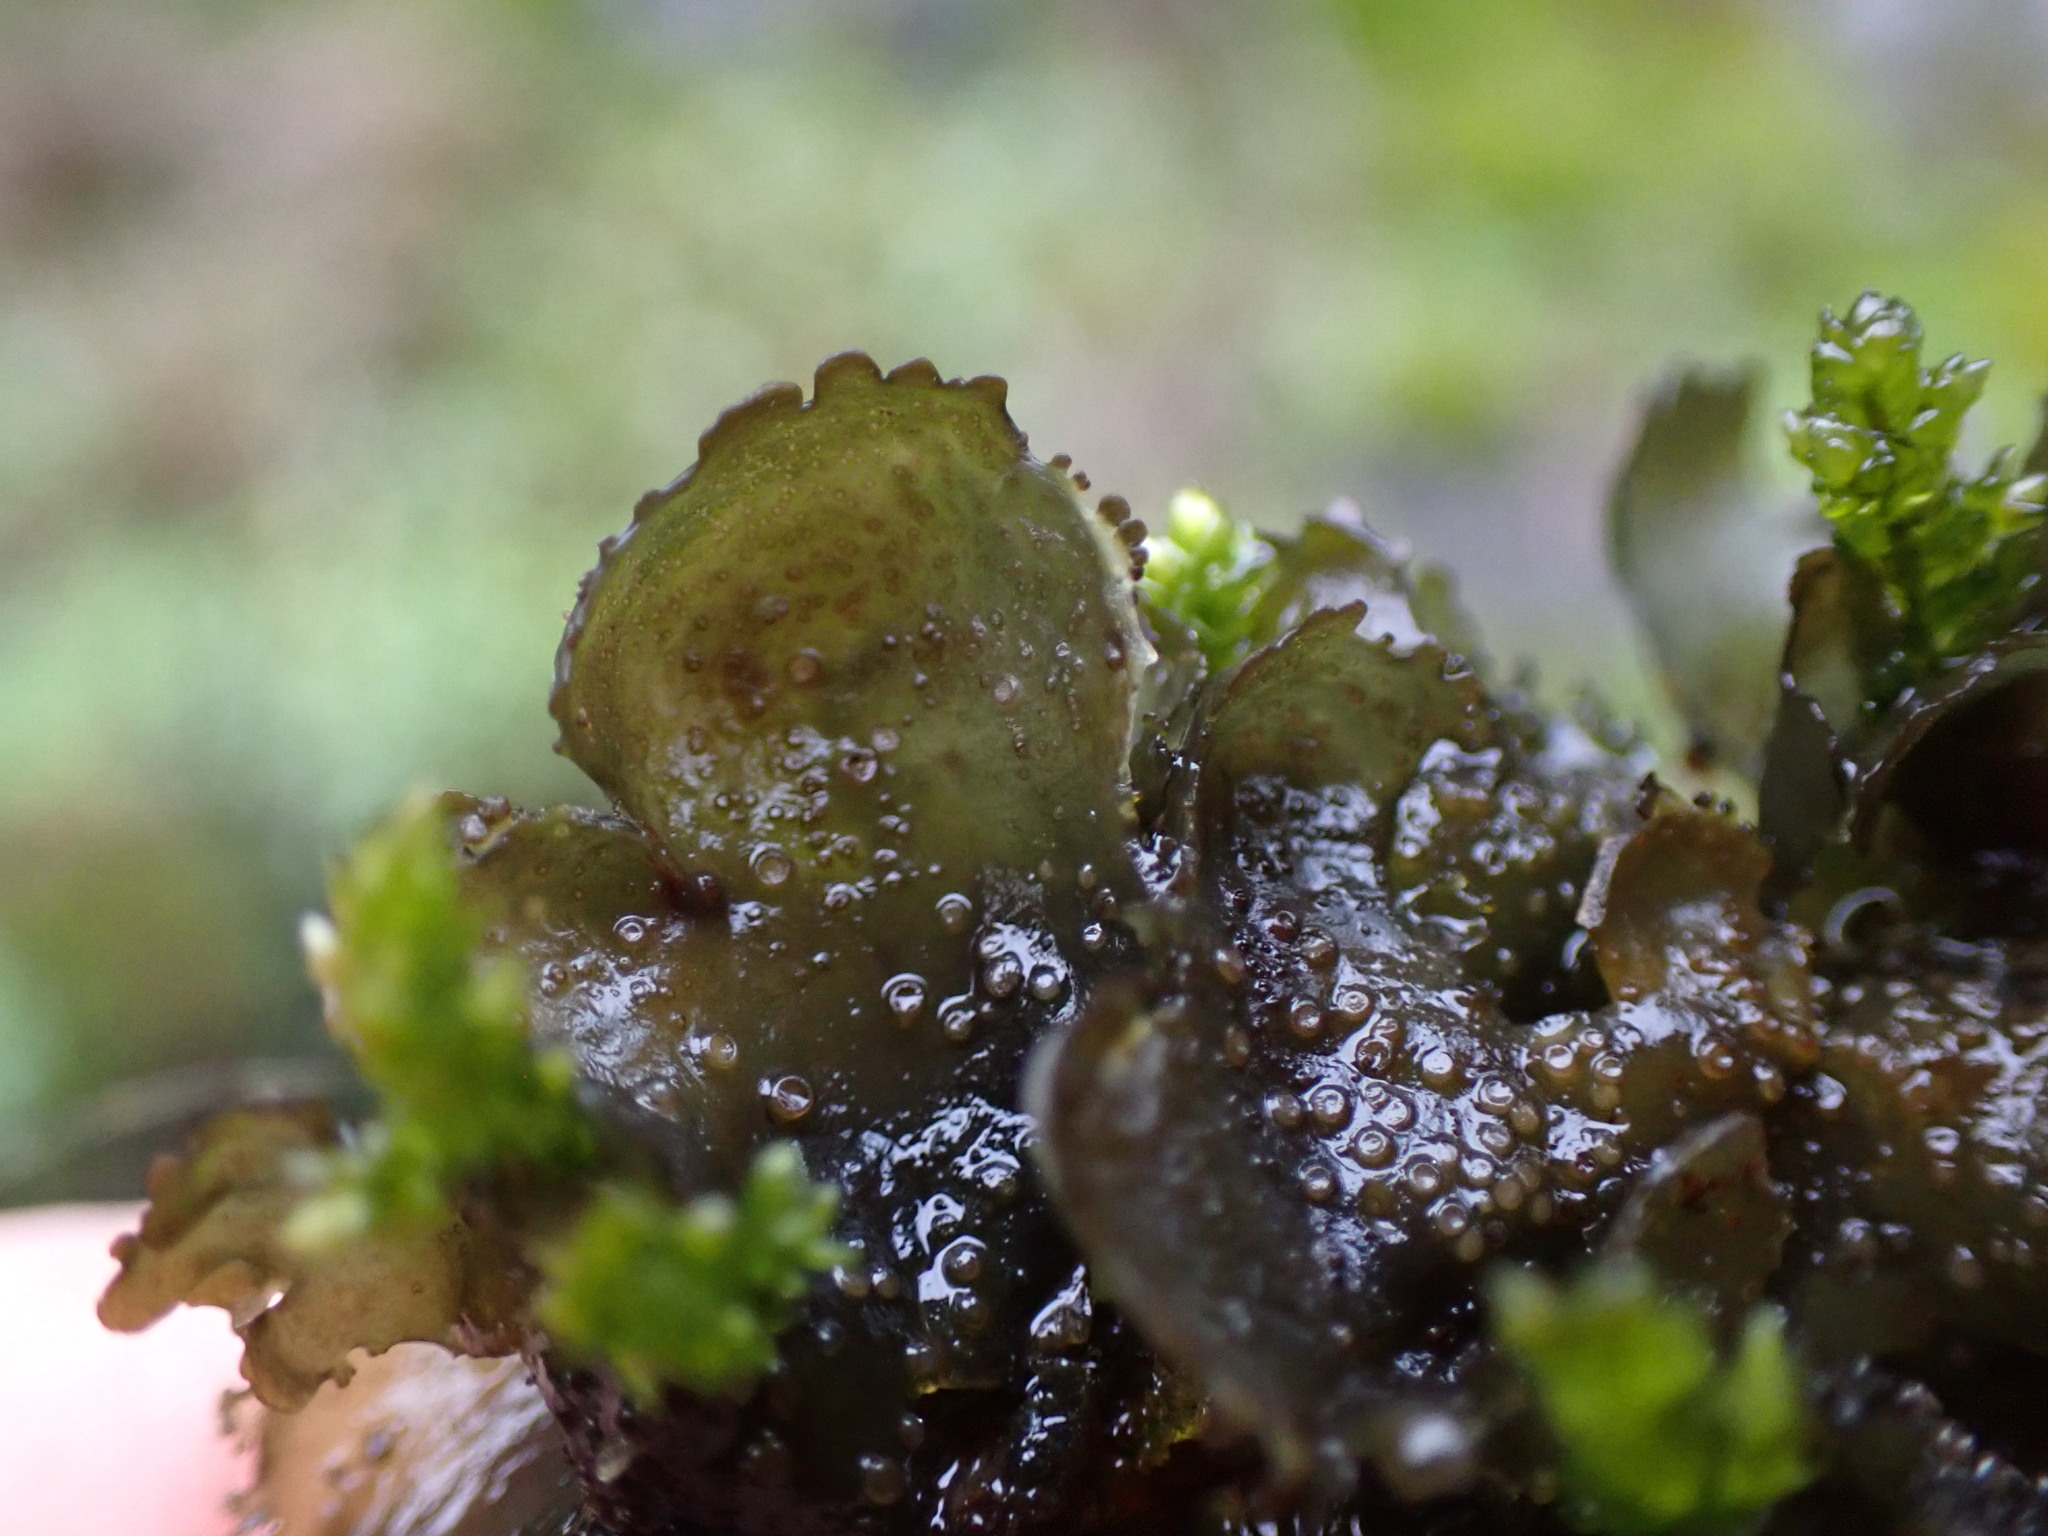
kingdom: Fungi
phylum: Ascomycota
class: Lecanoromycetes
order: Peltigerales
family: Collemataceae
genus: Scytinium
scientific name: Scytinium platynum
